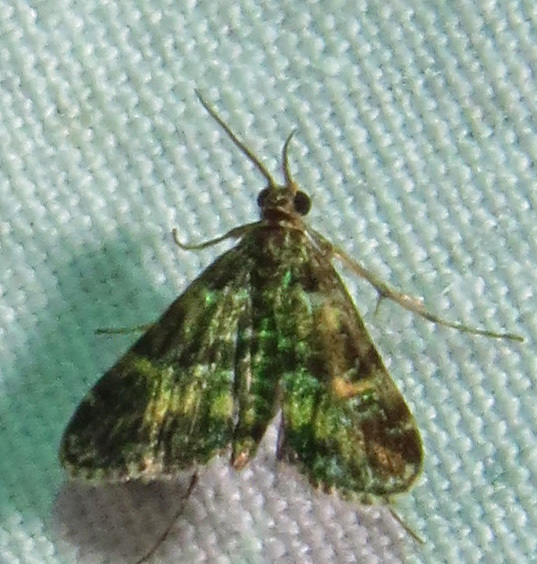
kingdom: Animalia
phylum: Arthropoda
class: Insecta
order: Lepidoptera
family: Crambidae
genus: Elophila
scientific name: Elophila obliteralis
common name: Waterlily leafcutter moth
